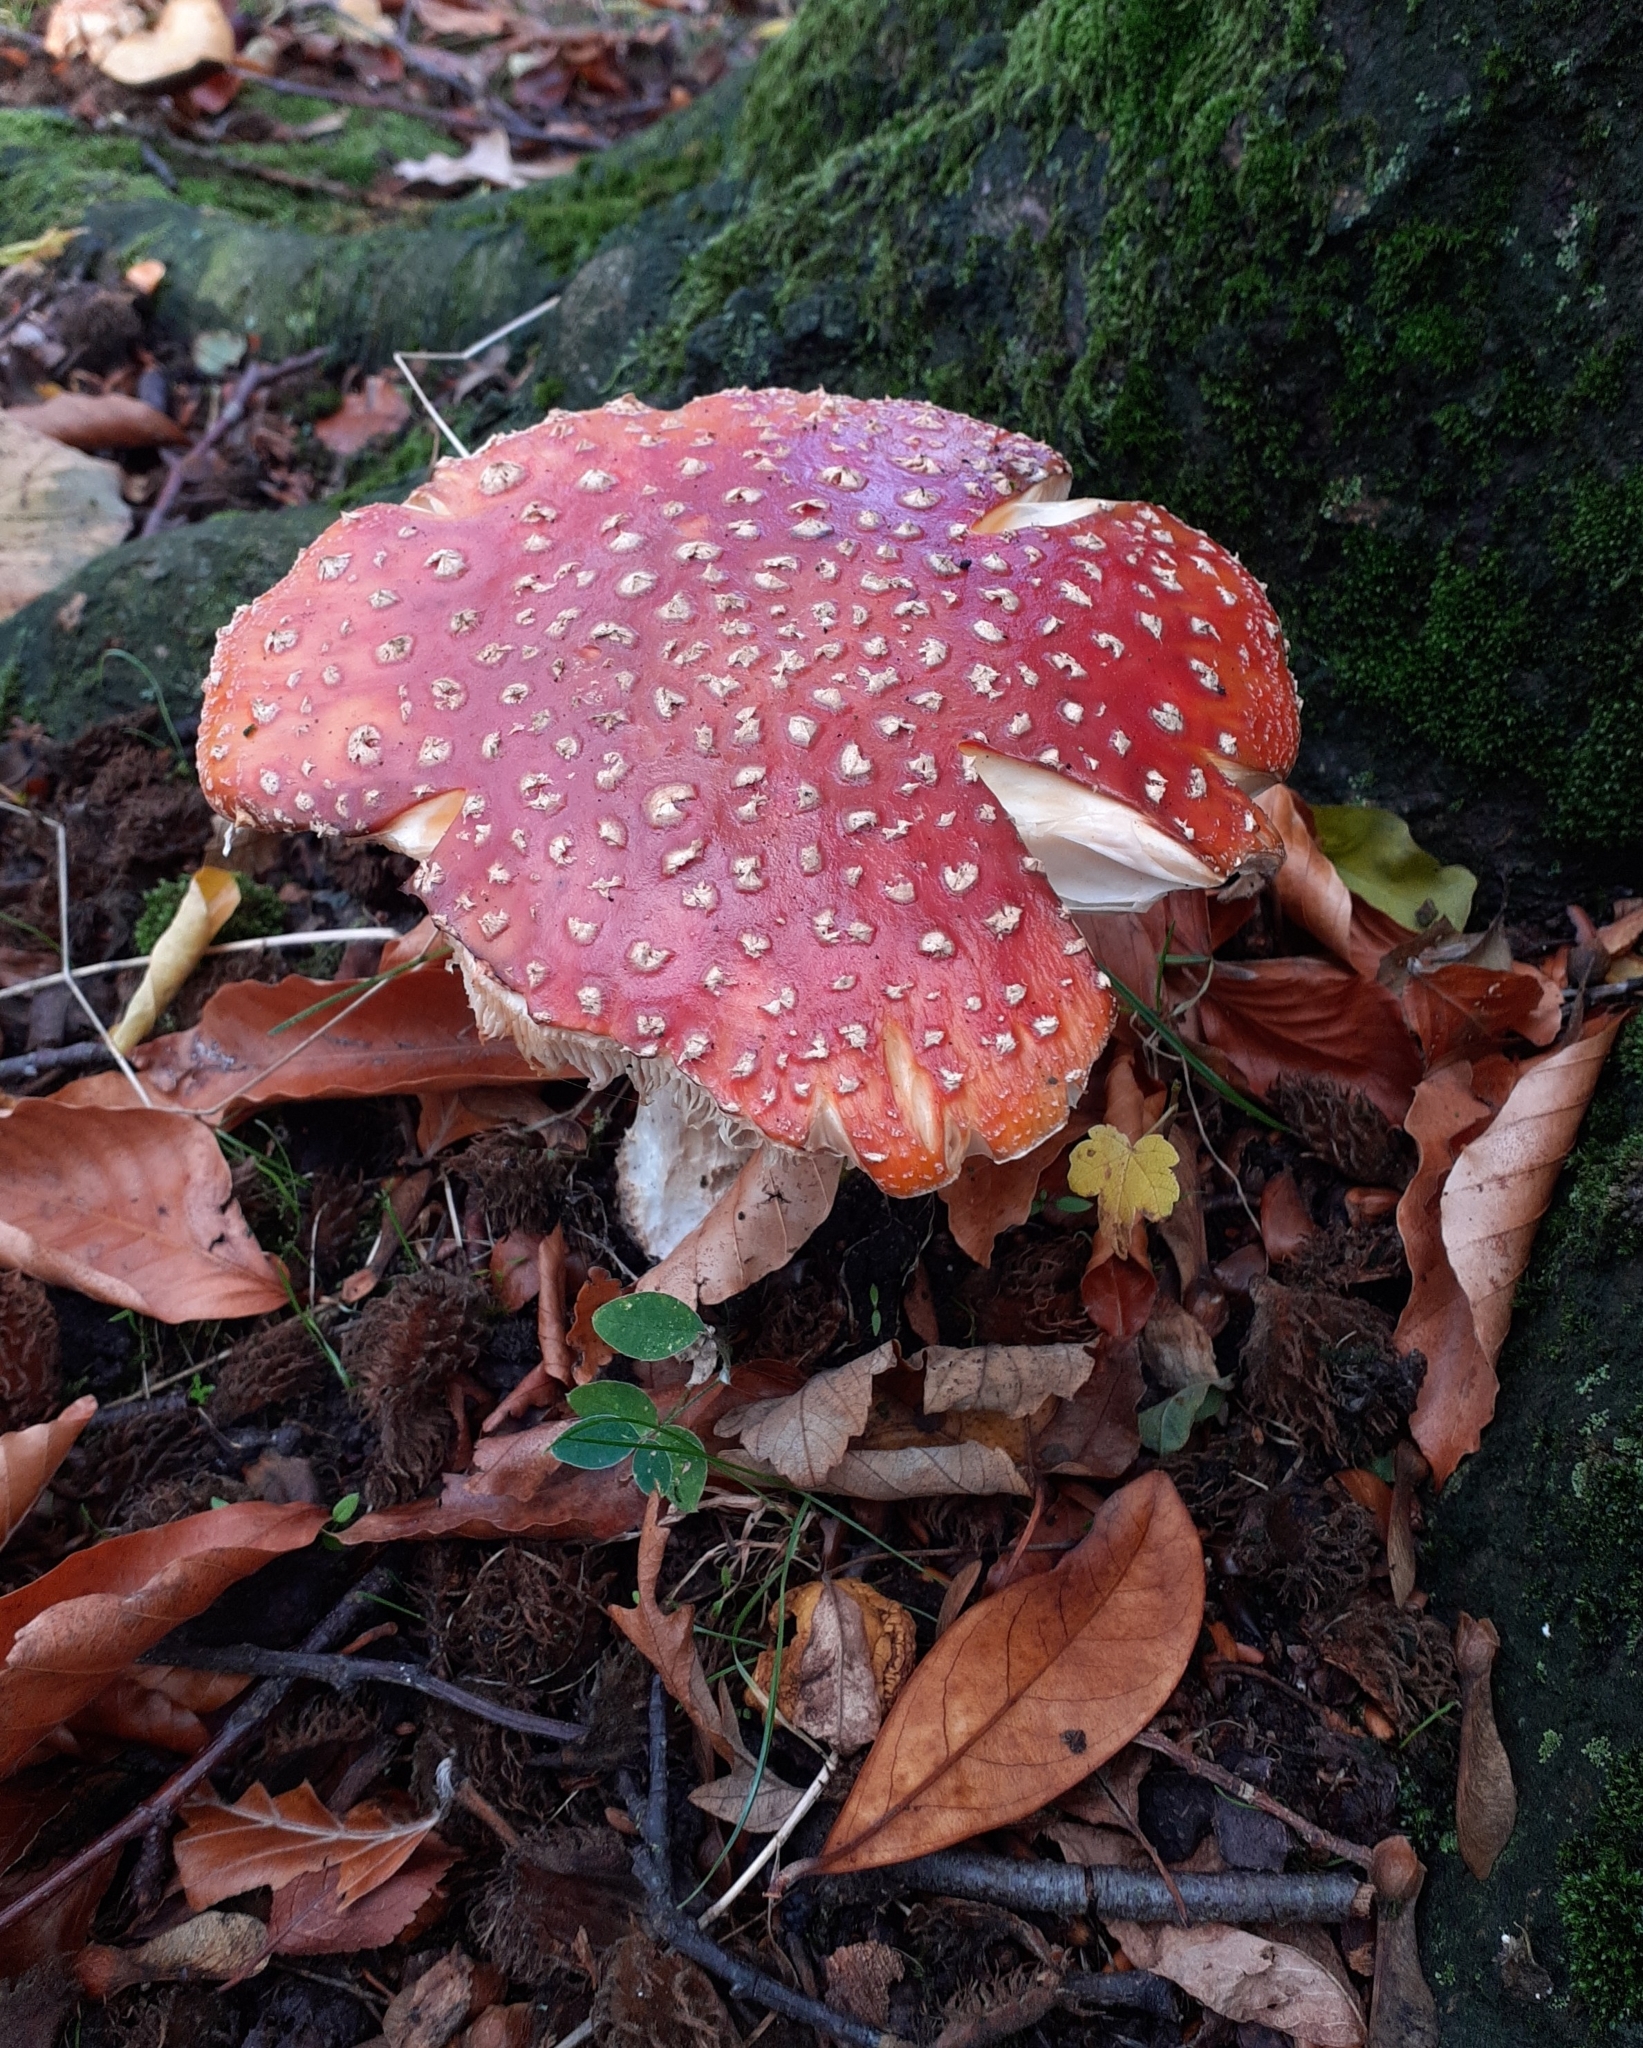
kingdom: Fungi
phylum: Basidiomycota
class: Agaricomycetes
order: Agaricales
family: Amanitaceae
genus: Amanita
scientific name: Amanita muscaria
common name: Fly agaric
